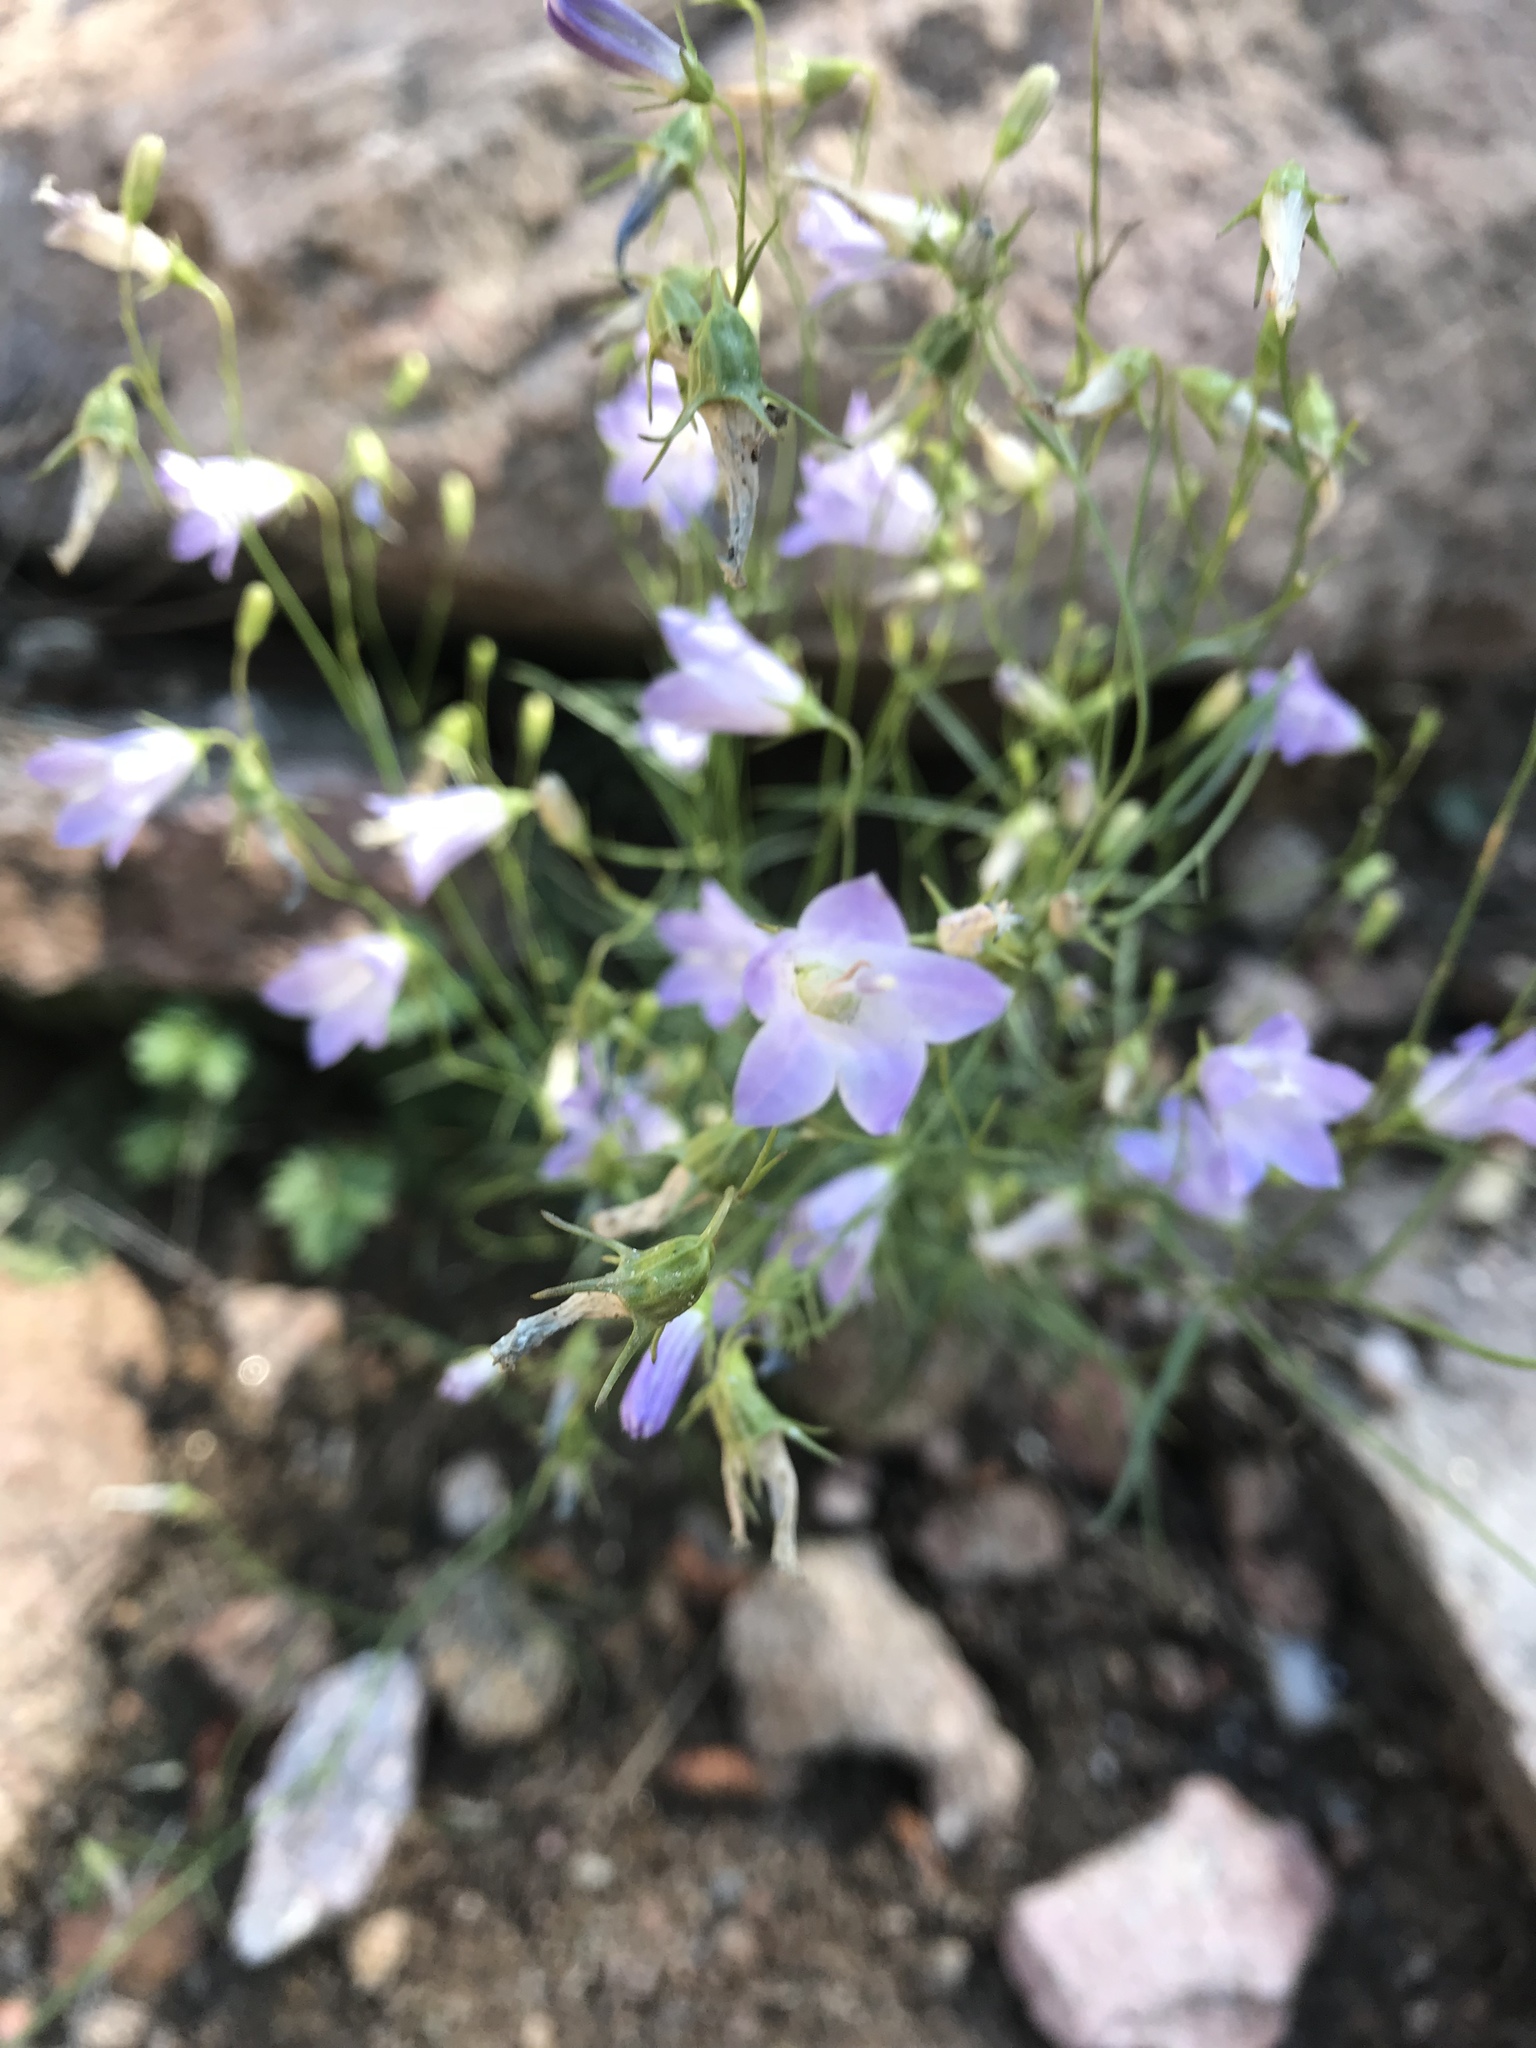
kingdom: Plantae
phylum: Tracheophyta
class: Magnoliopsida
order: Asterales
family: Campanulaceae
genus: Campanula
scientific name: Campanula petiolata
